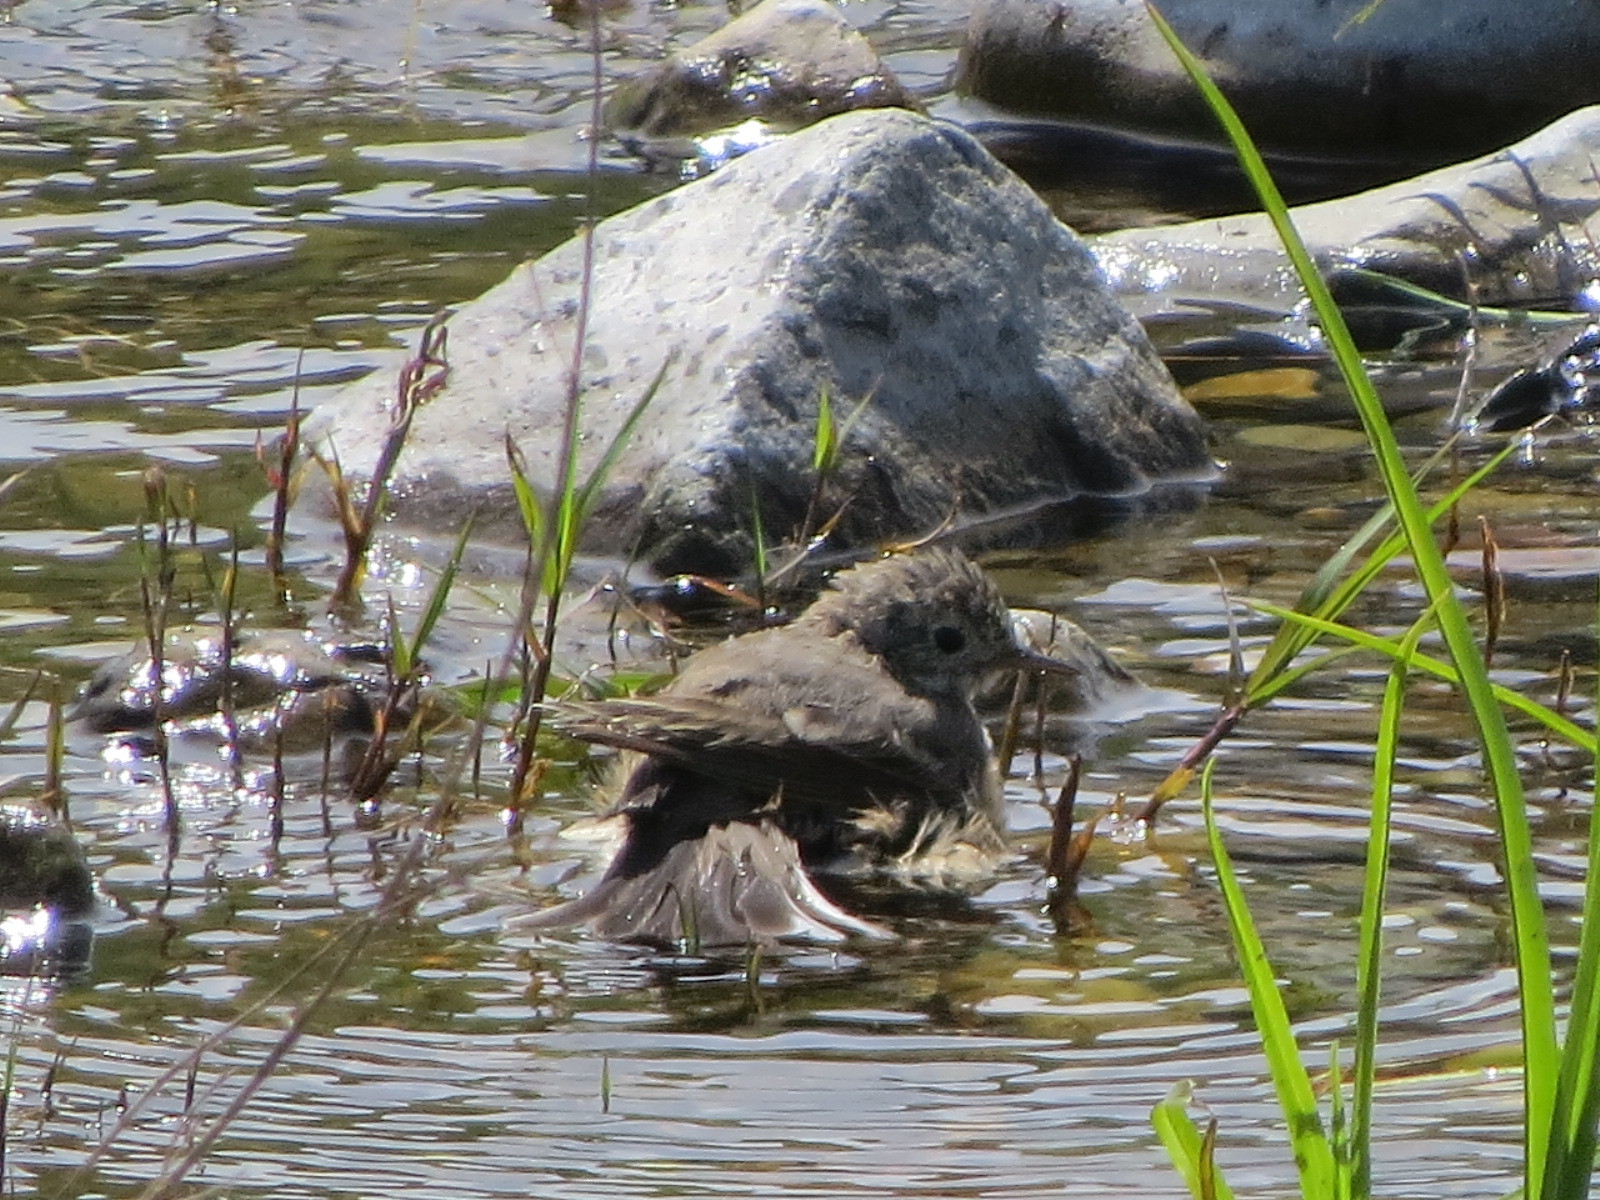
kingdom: Animalia
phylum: Chordata
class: Aves
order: Passeriformes
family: Motacillidae
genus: Anthus
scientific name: Anthus rubescens
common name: Buff-bellied pipit
